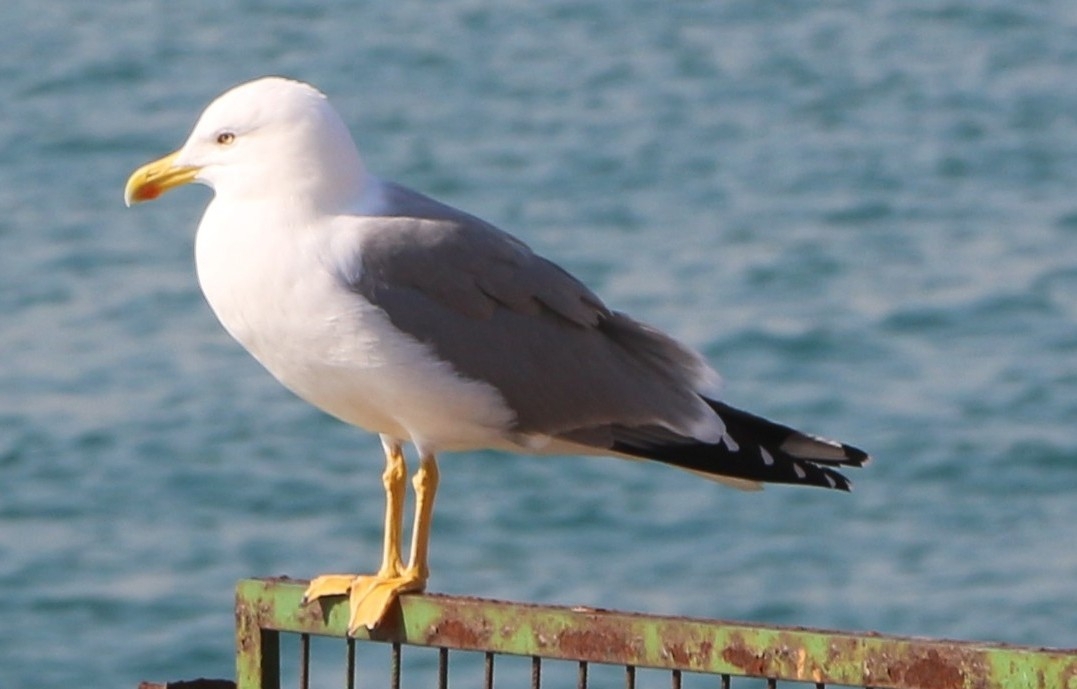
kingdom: Animalia
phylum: Chordata
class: Aves
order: Charadriiformes
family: Laridae
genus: Larus
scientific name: Larus michahellis
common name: Yellow-legged gull
